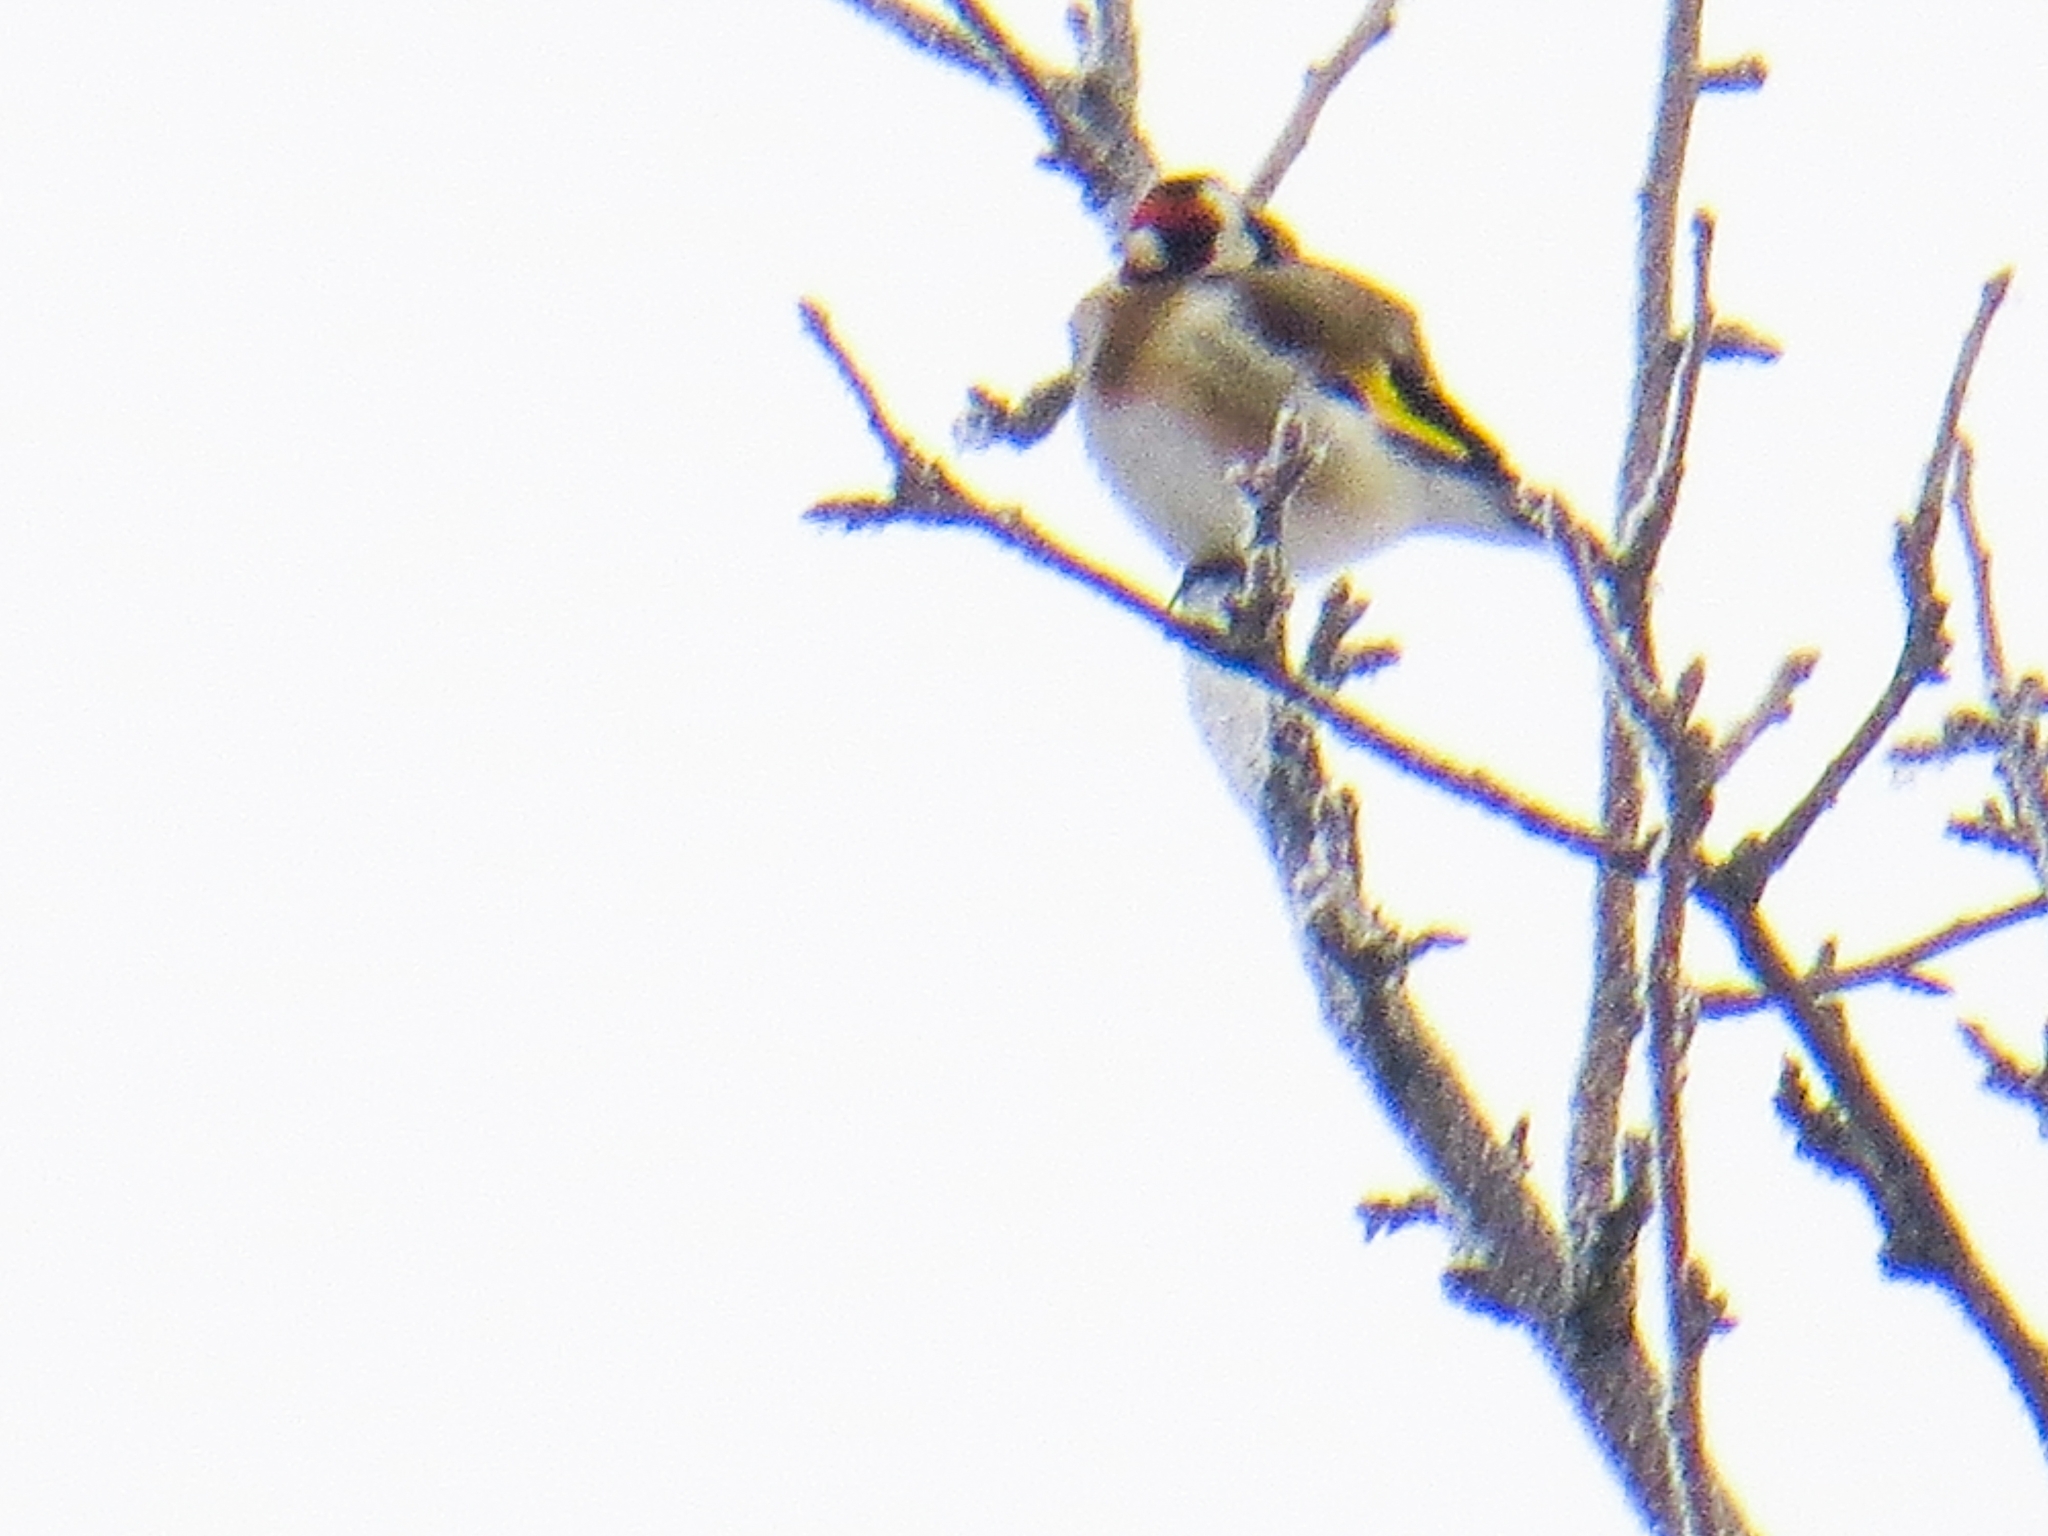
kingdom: Animalia
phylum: Chordata
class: Aves
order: Passeriformes
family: Fringillidae
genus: Carduelis
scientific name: Carduelis carduelis
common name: European goldfinch
